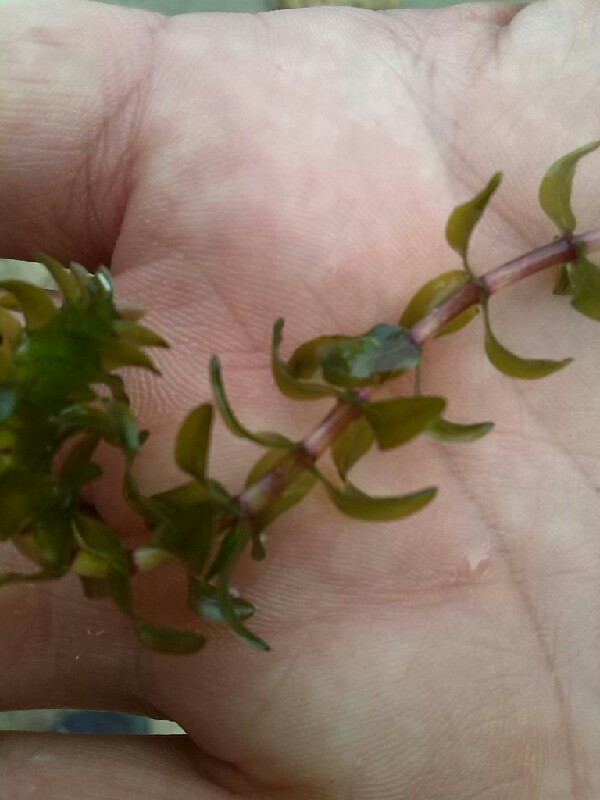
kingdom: Plantae
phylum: Tracheophyta
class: Liliopsida
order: Alismatales
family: Hydrocharitaceae
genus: Elodea
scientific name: Elodea canadensis
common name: Canadian waterweed
